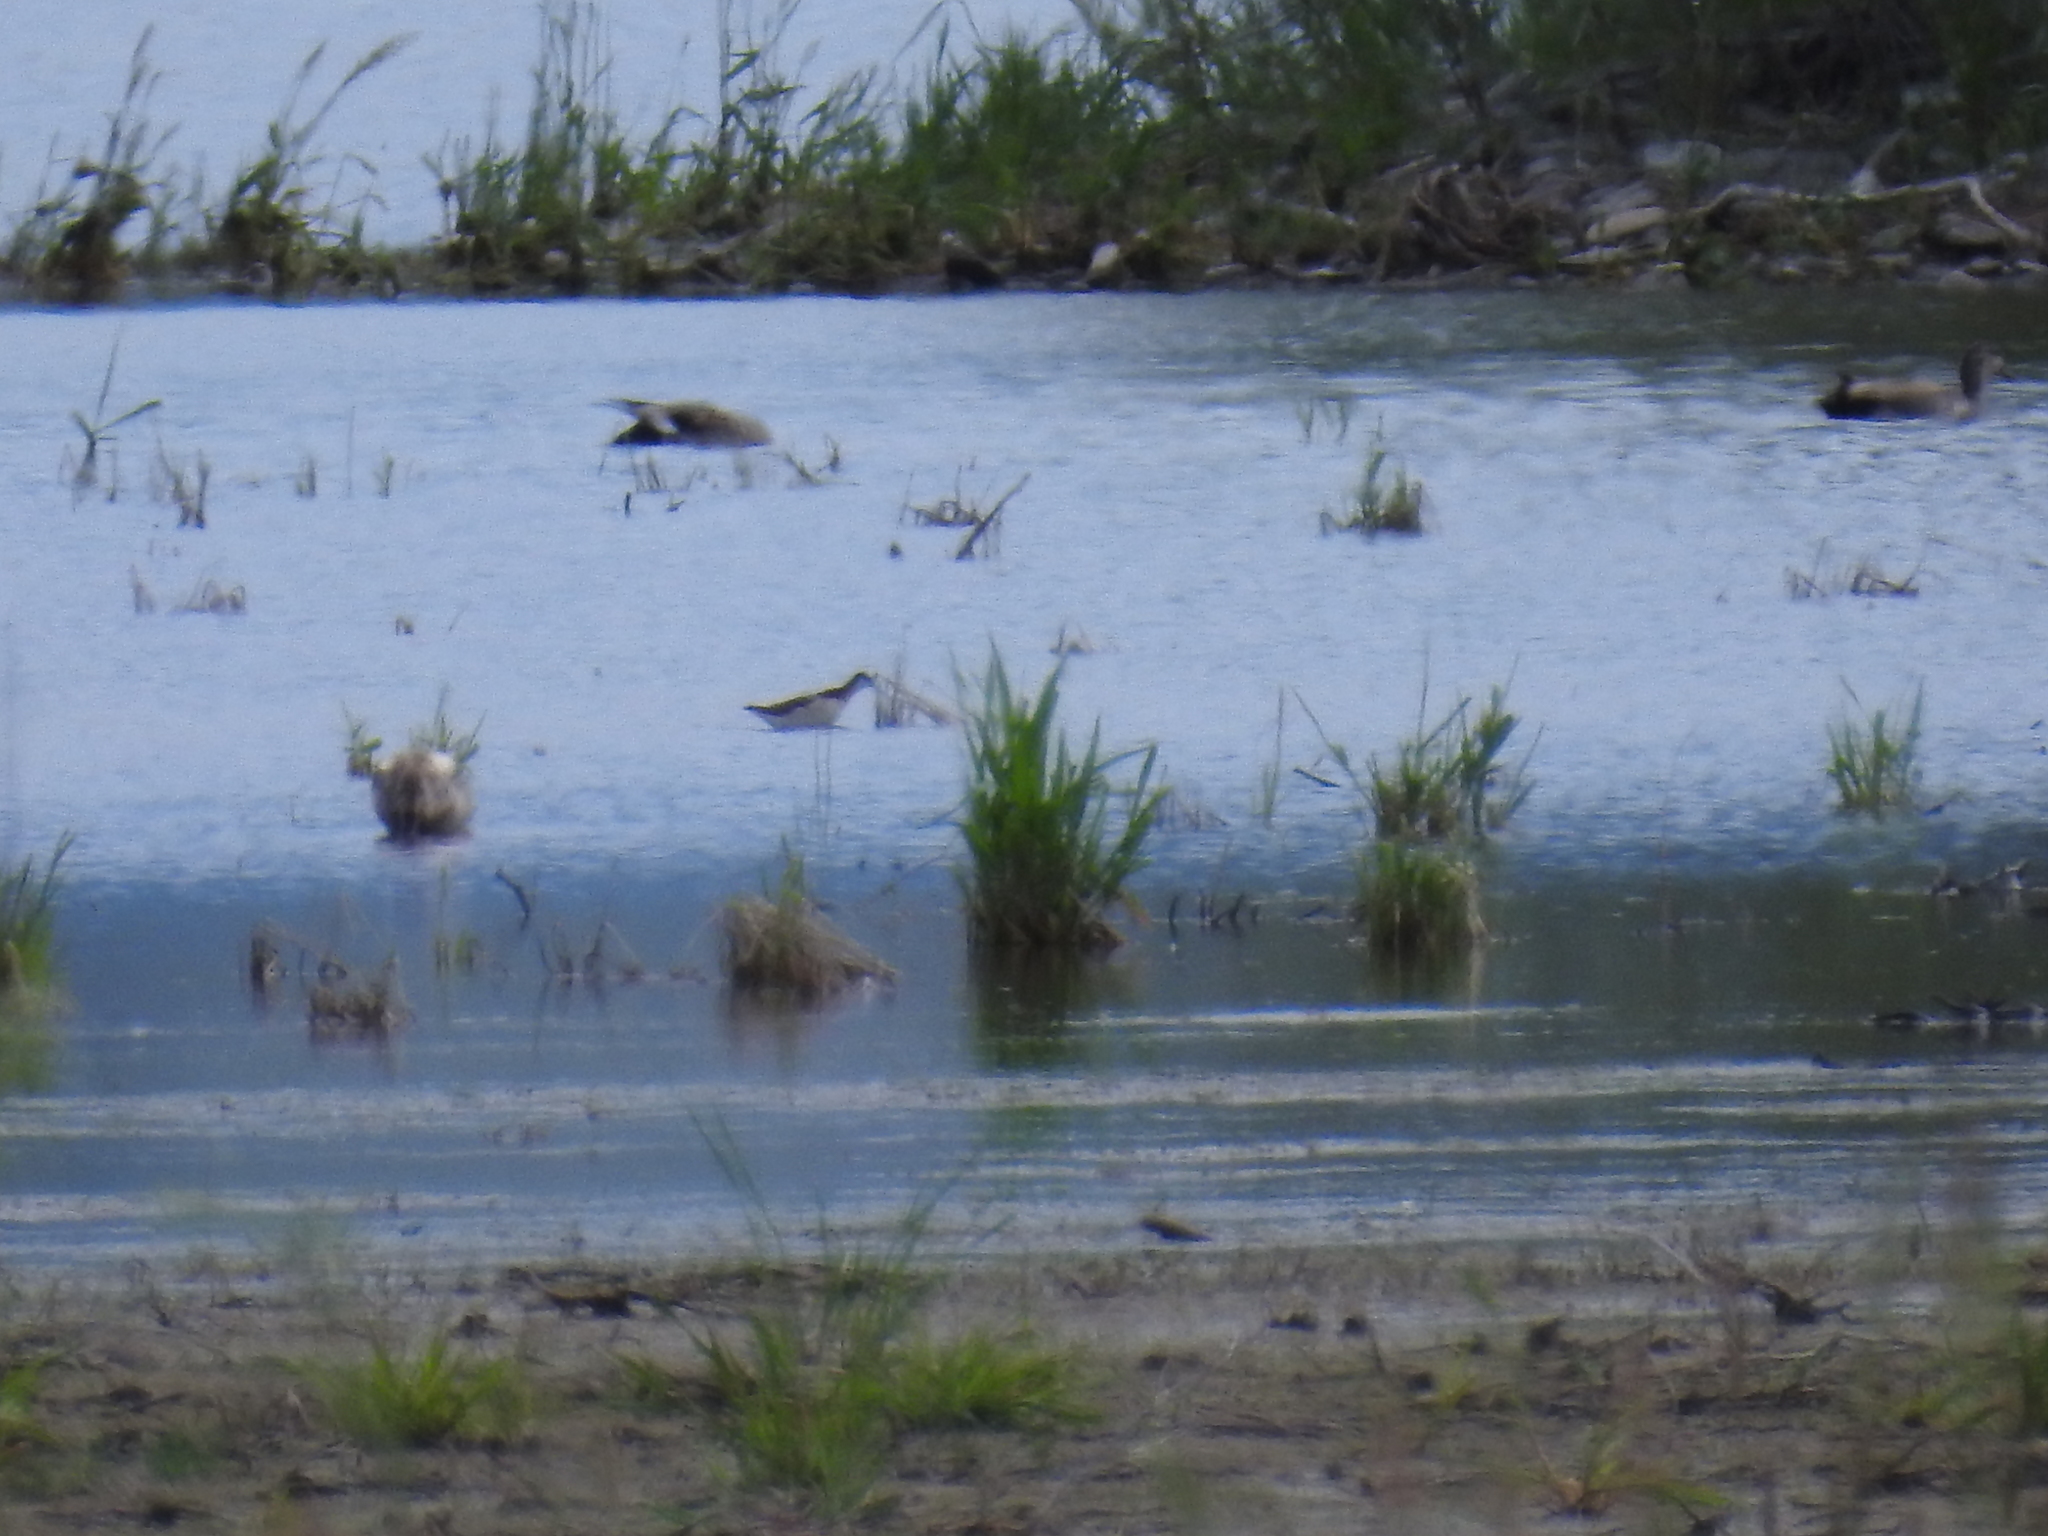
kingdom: Animalia
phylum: Chordata
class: Aves
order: Charadriiformes
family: Scolopacidae
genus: Phalaropus
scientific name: Phalaropus tricolor
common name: Wilson's phalarope
